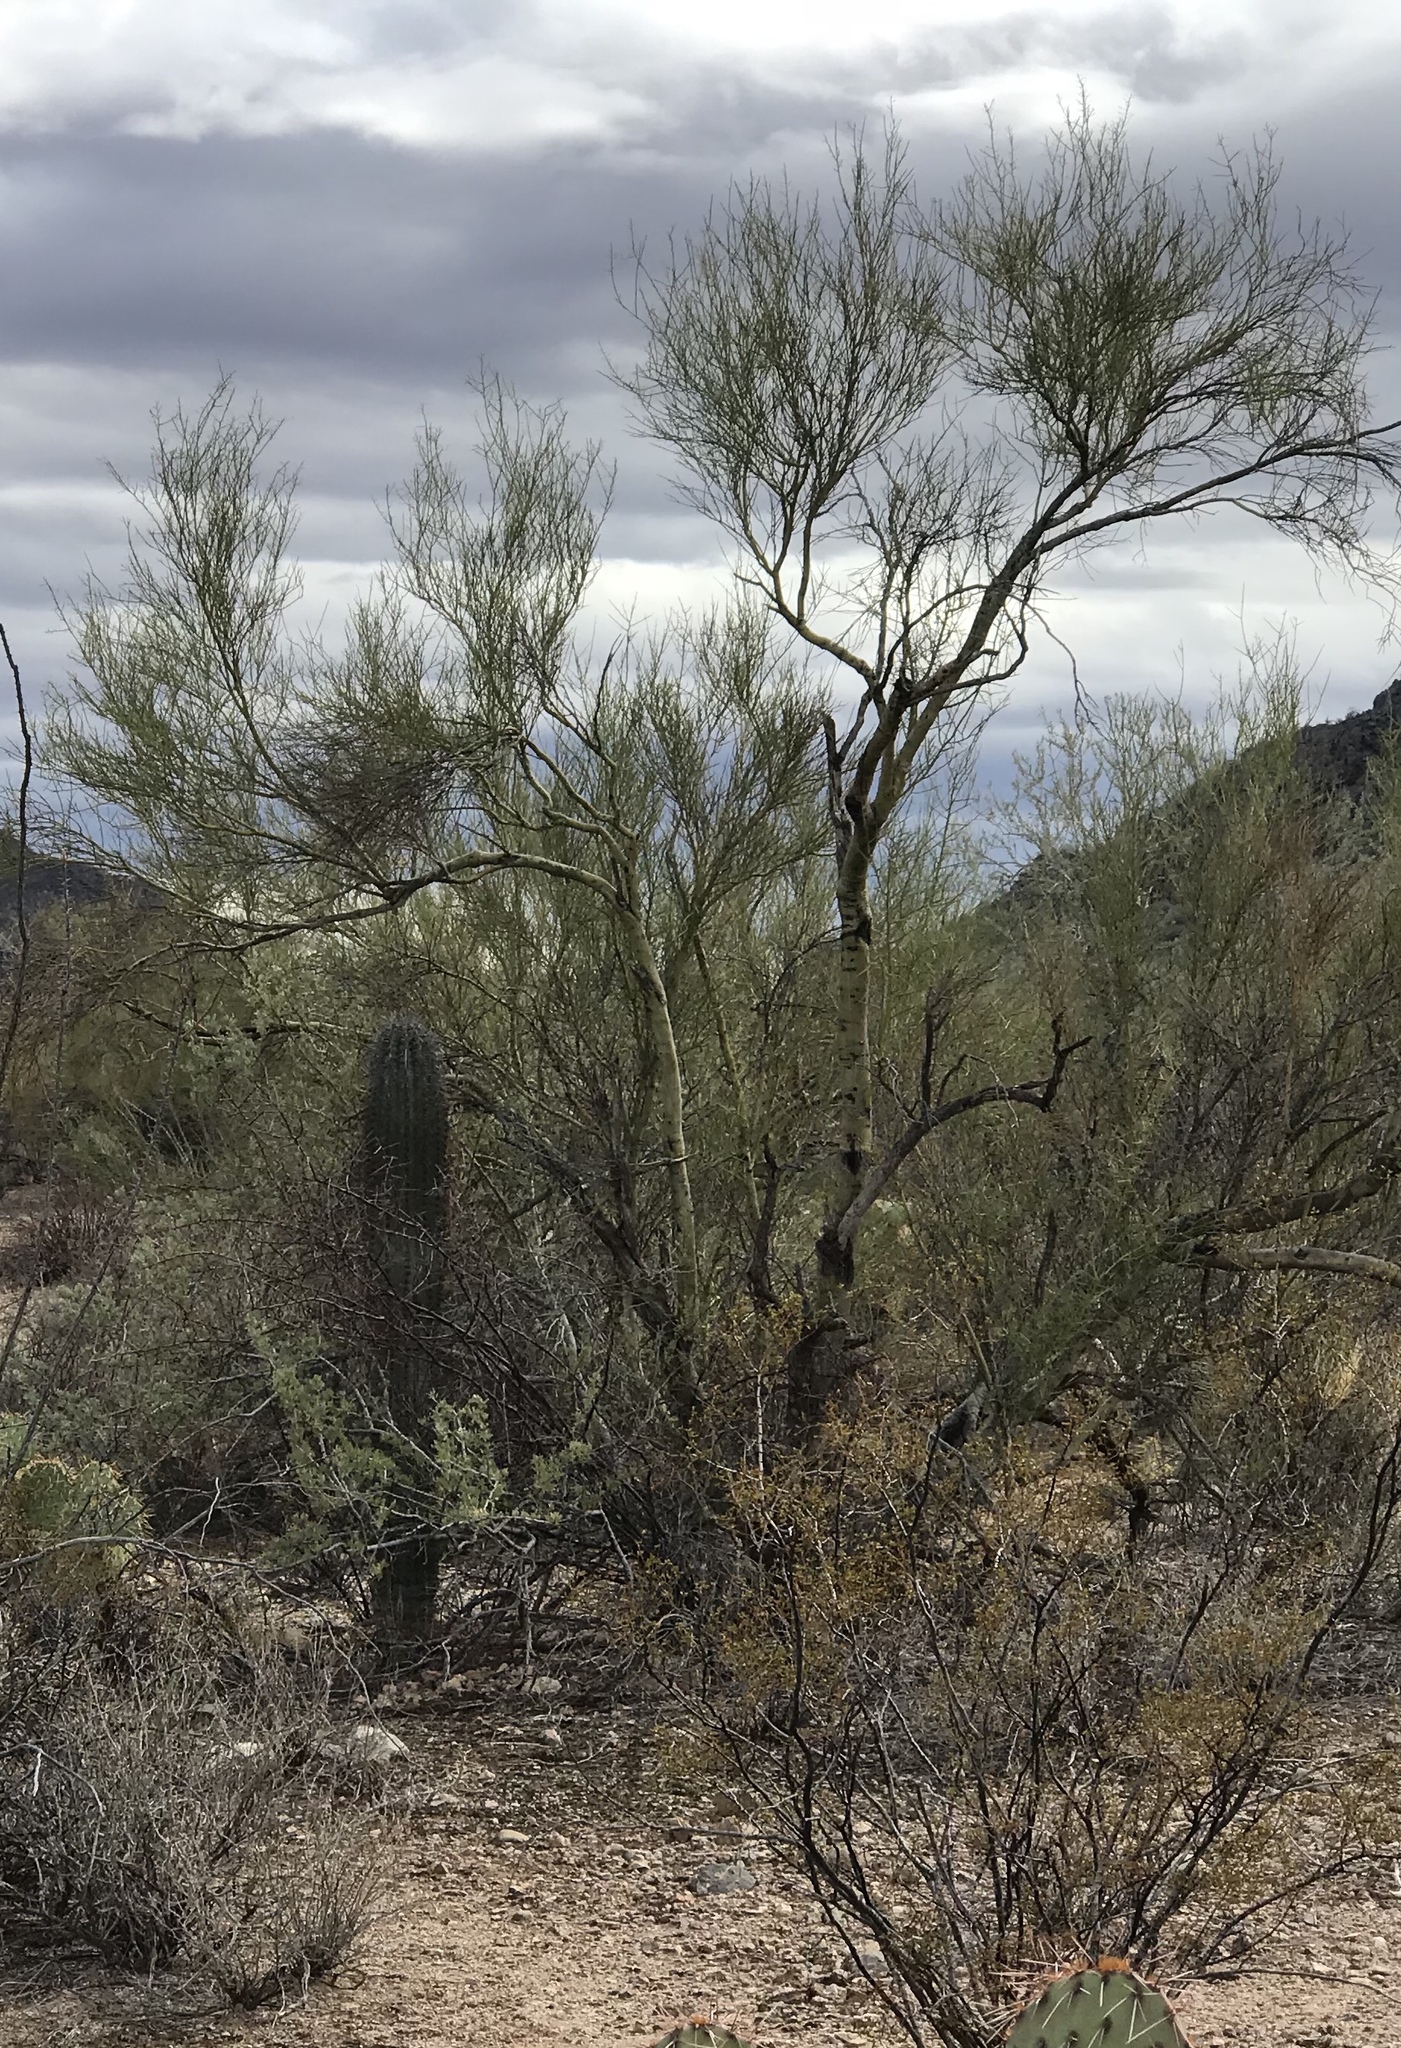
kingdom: Plantae
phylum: Tracheophyta
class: Magnoliopsida
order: Fabales
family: Fabaceae
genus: Parkinsonia
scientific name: Parkinsonia microphylla
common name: Yellow paloverde
